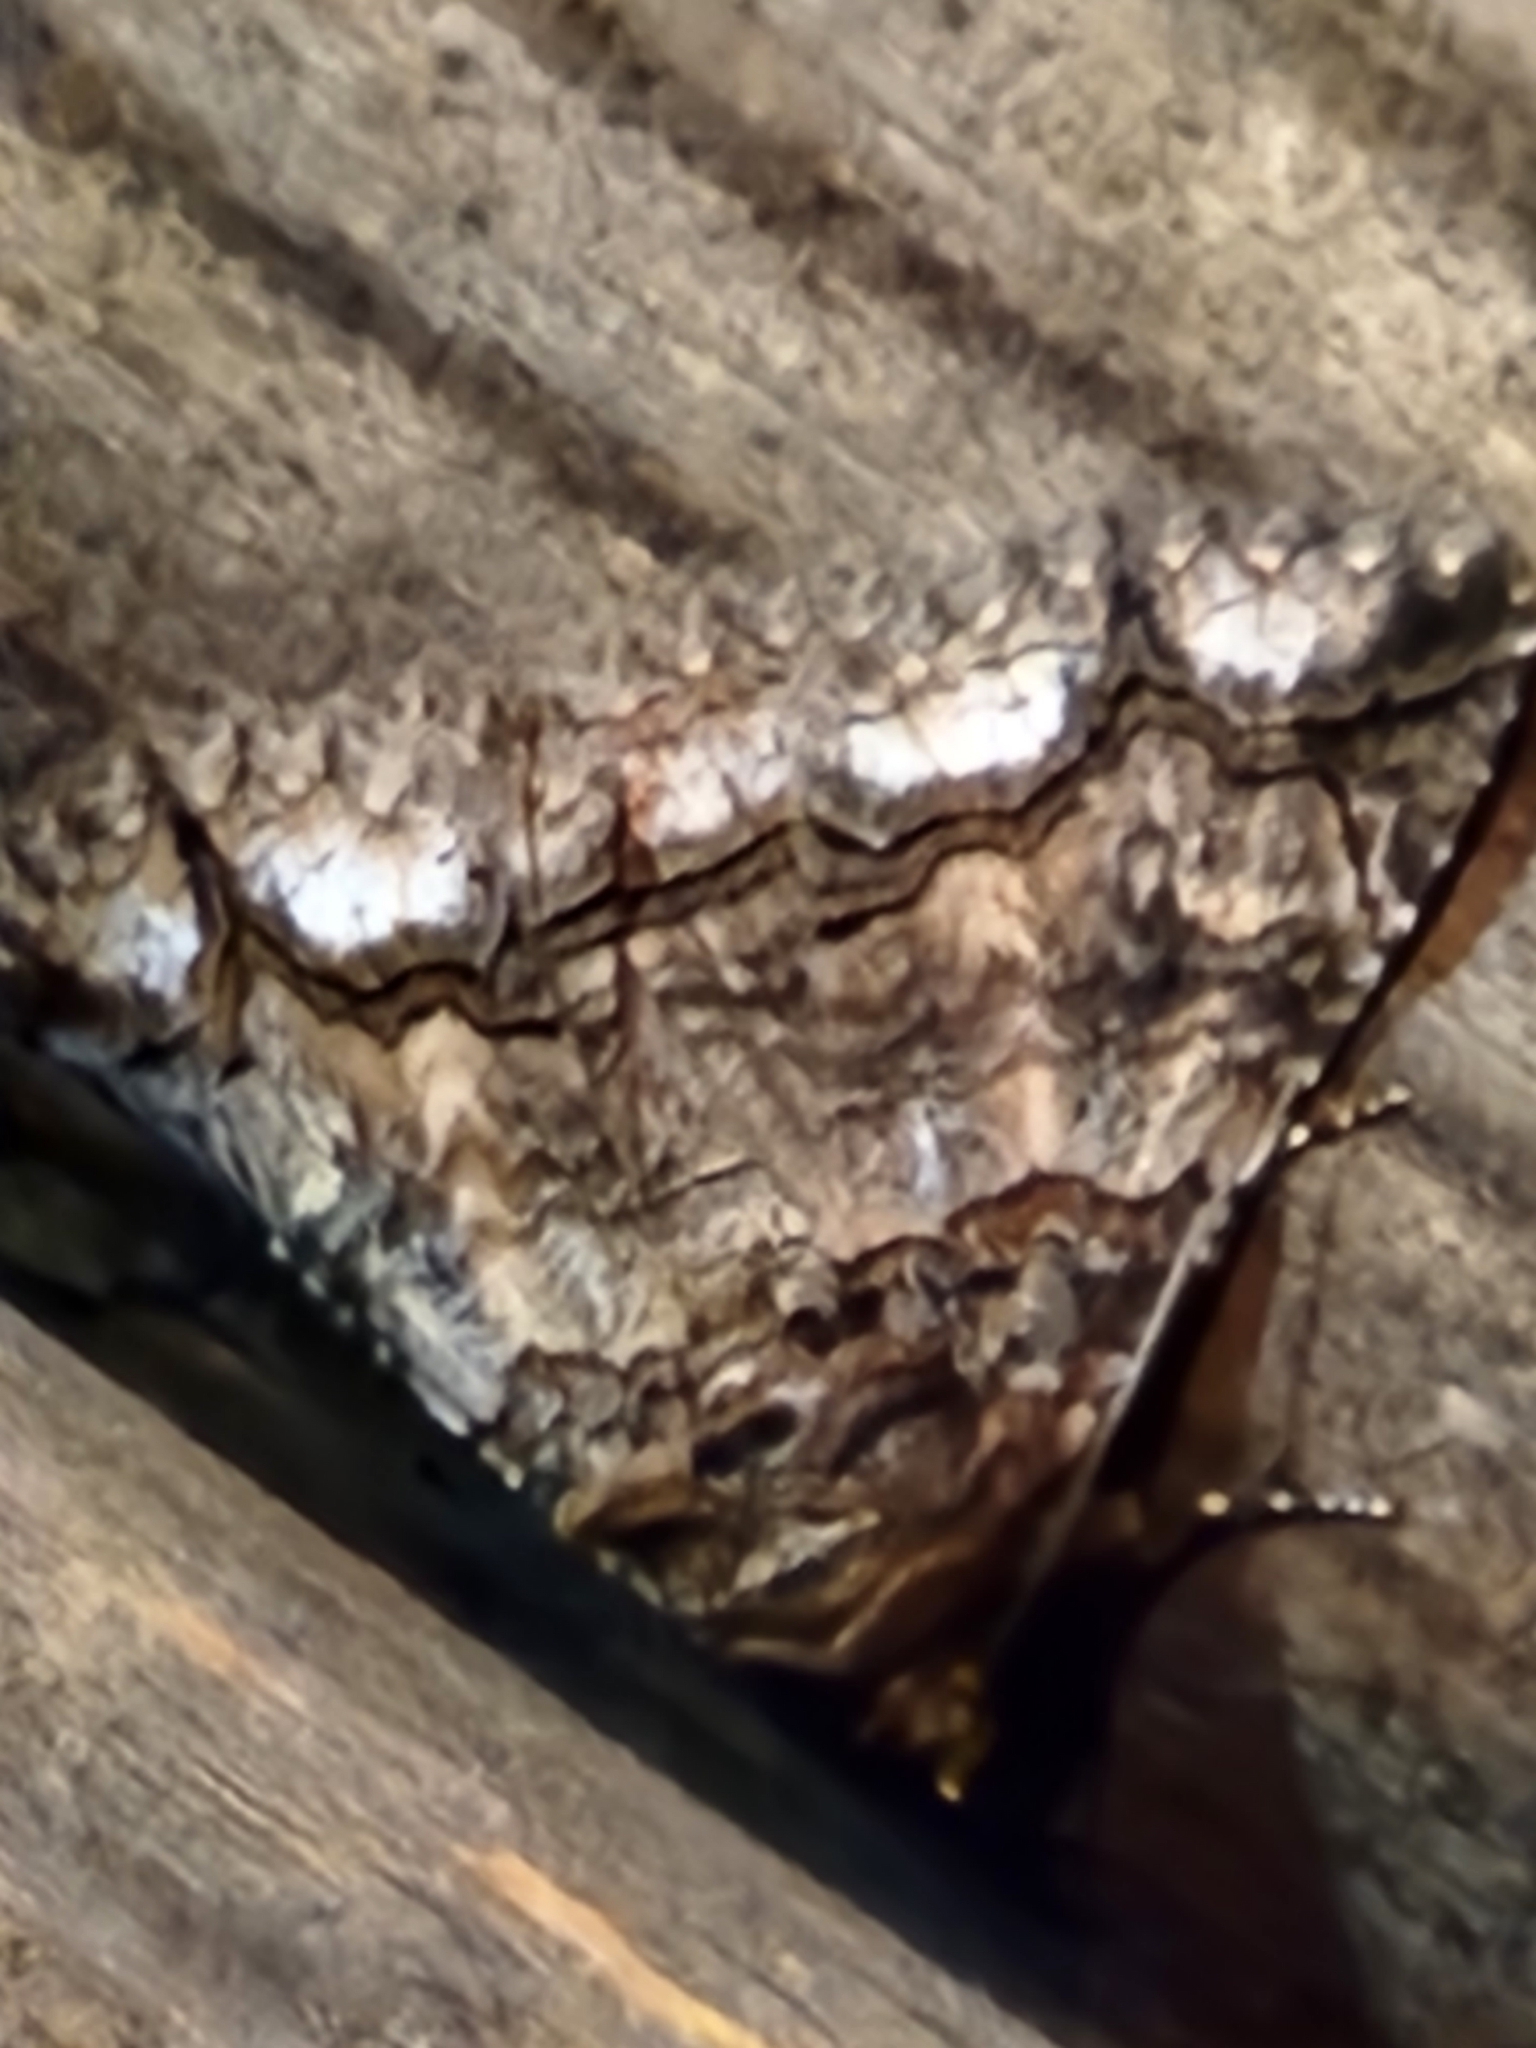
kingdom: Animalia
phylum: Arthropoda
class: Insecta
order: Lepidoptera
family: Erebidae
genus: Zale
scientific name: Zale edusina
